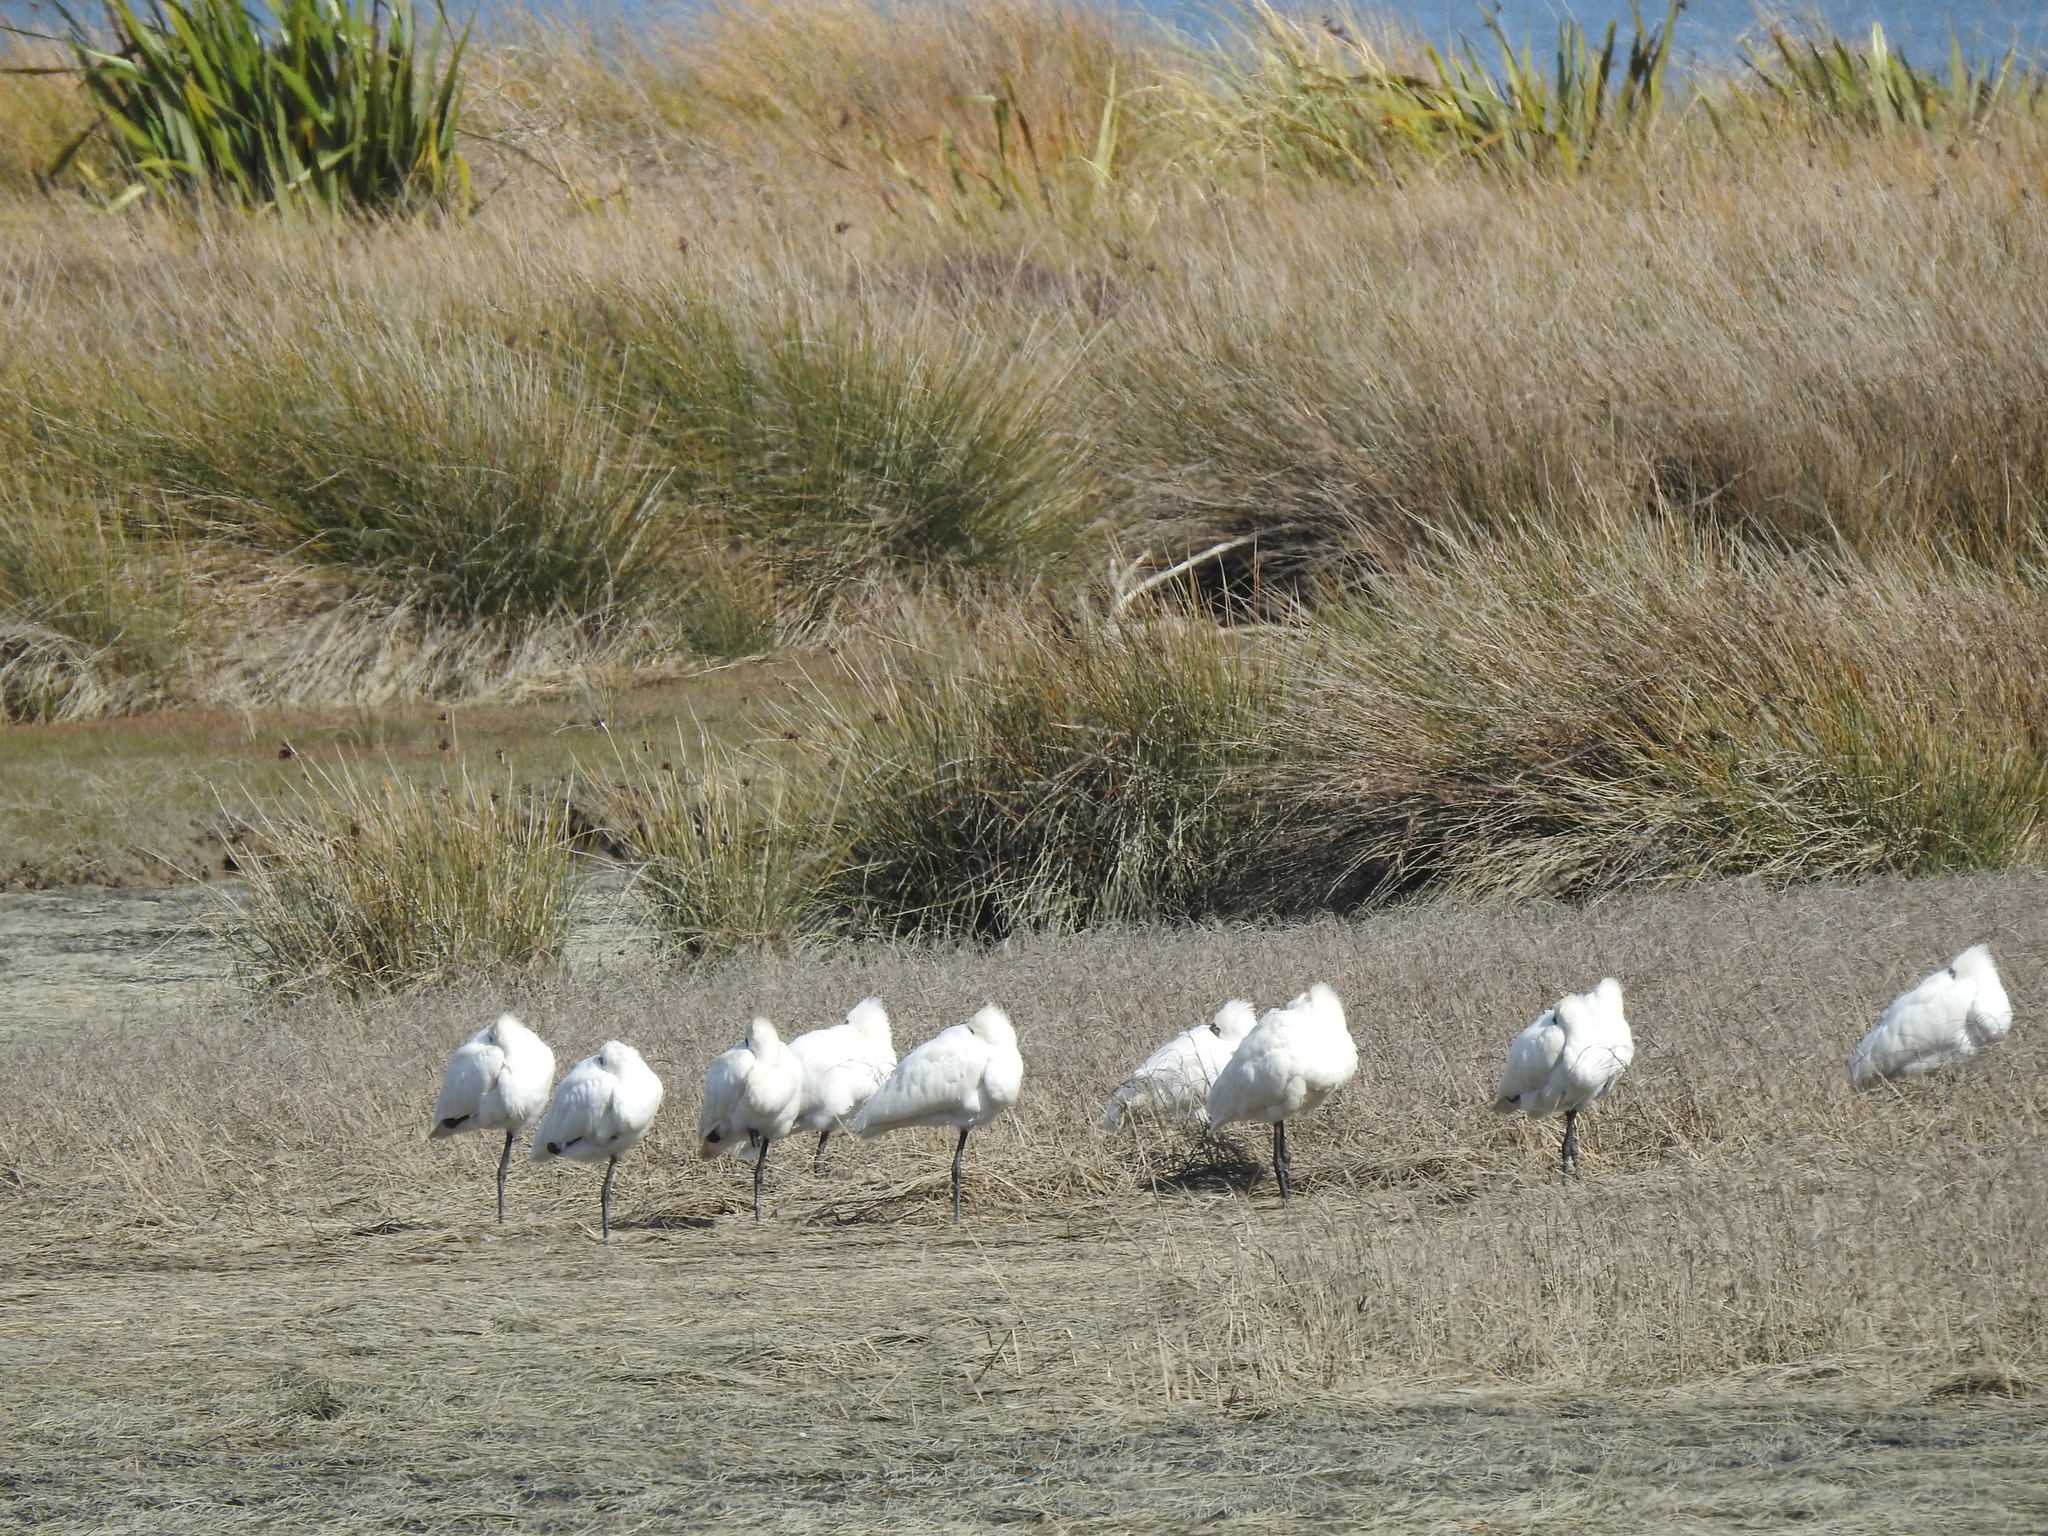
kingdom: Animalia
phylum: Chordata
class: Aves
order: Pelecaniformes
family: Threskiornithidae
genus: Platalea
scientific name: Platalea regia
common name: Royal spoonbill
